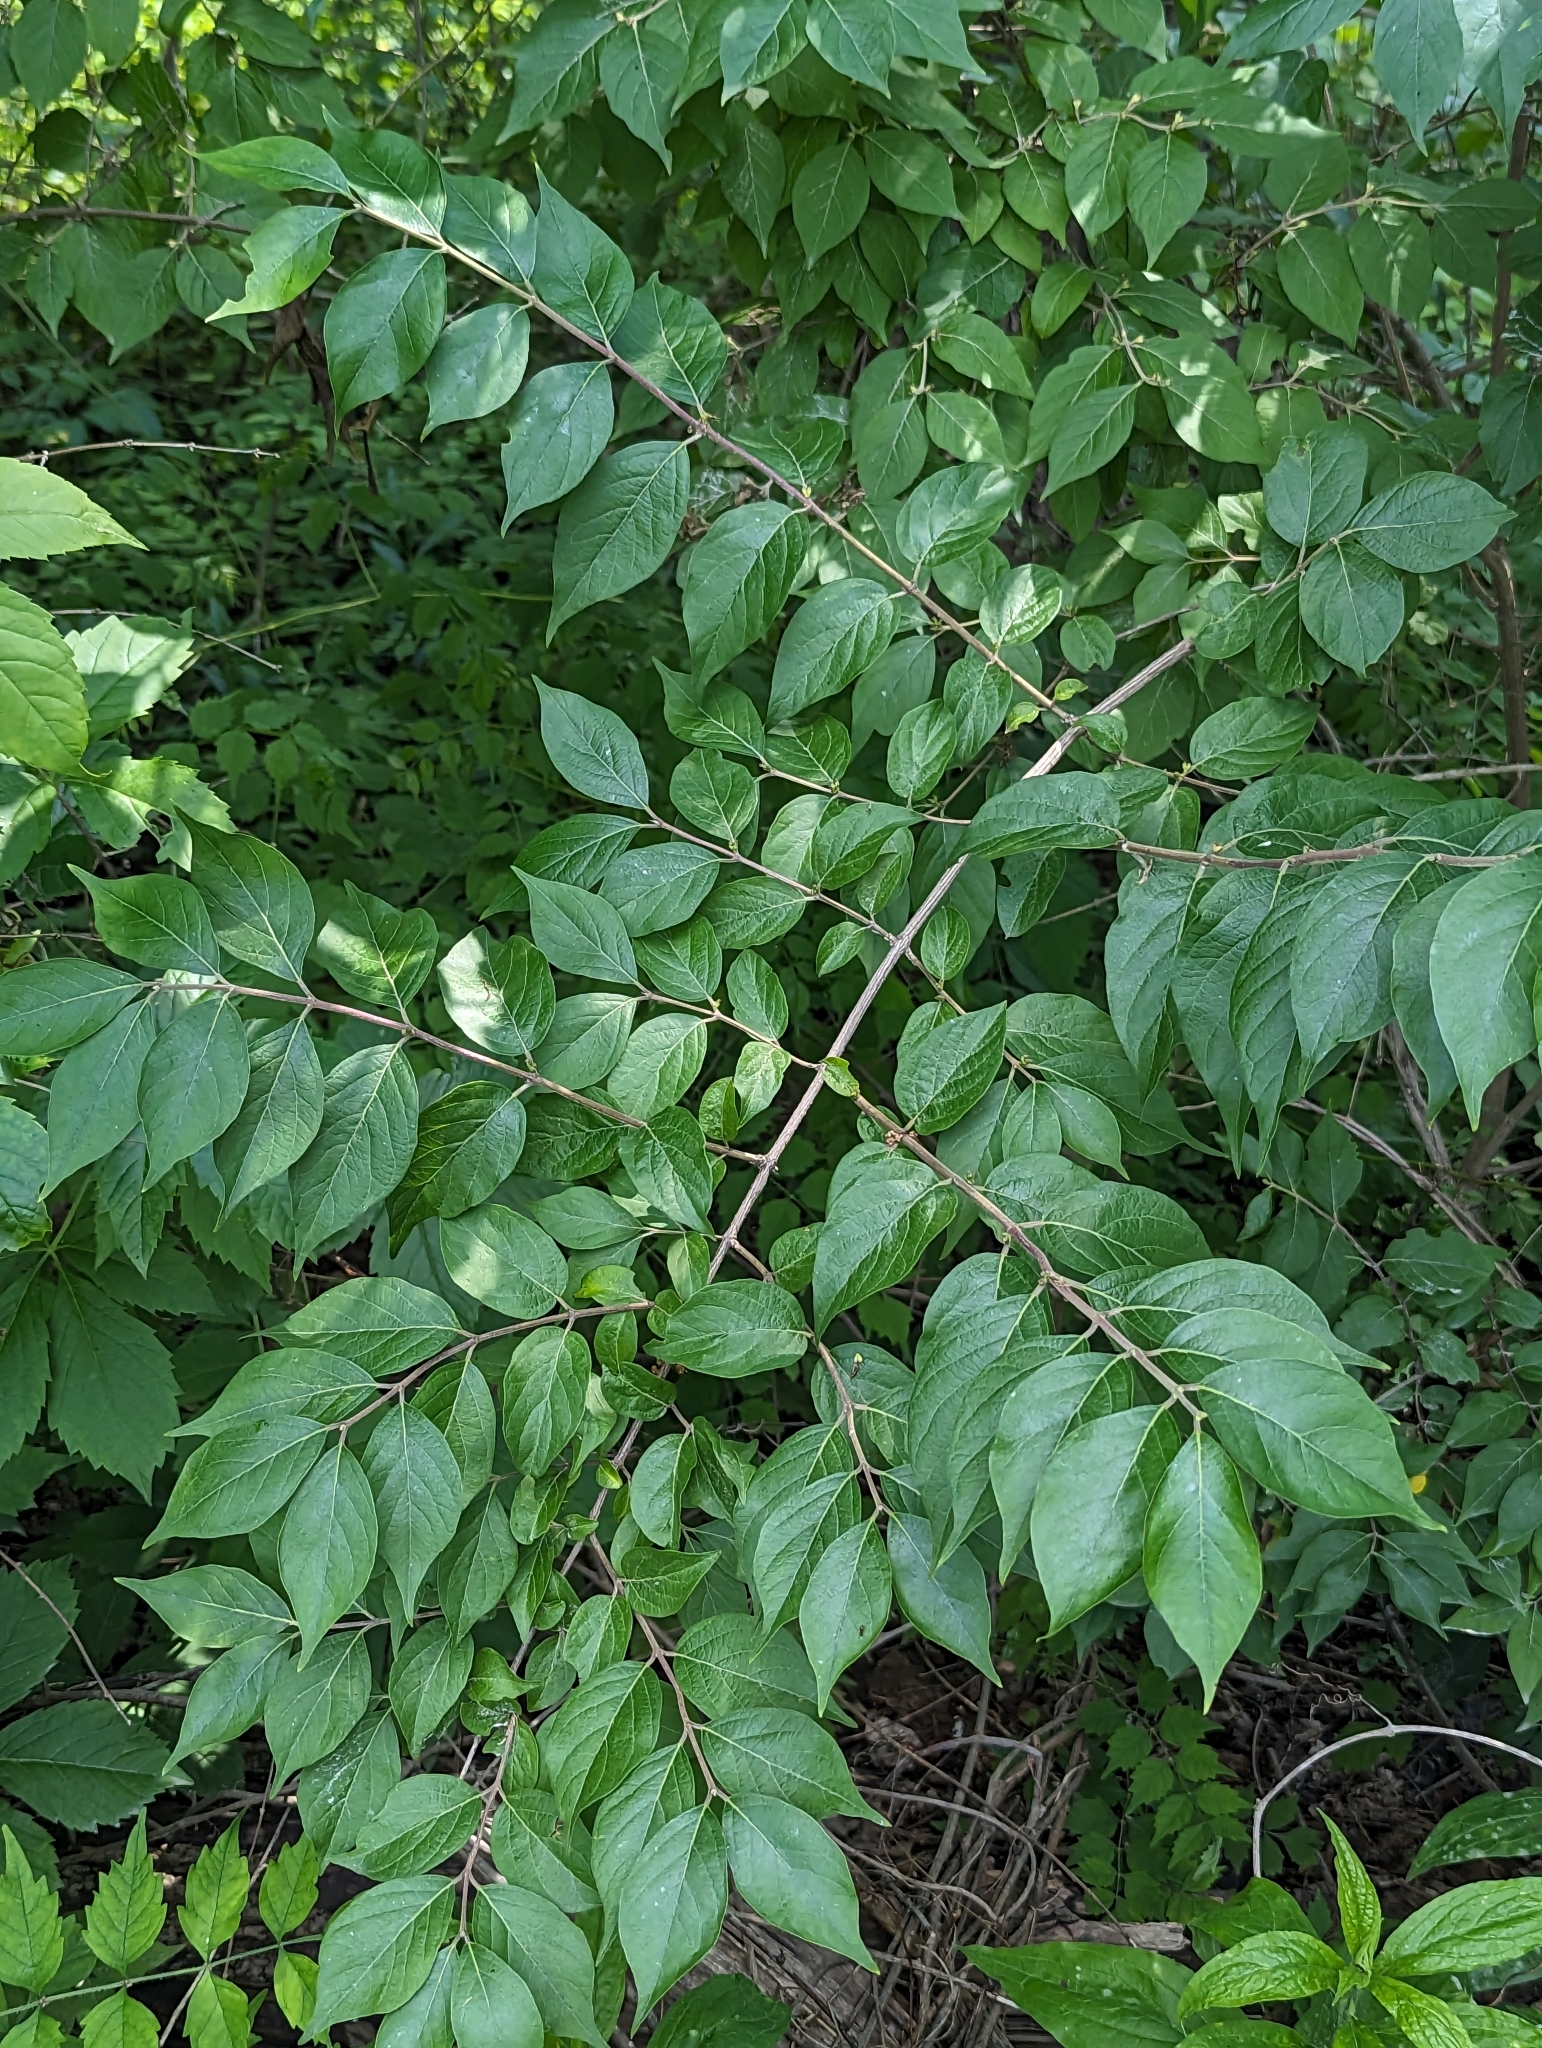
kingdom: Plantae
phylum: Tracheophyta
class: Magnoliopsida
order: Dipsacales
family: Caprifoliaceae
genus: Lonicera
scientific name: Lonicera maackii
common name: Amur honeysuckle
